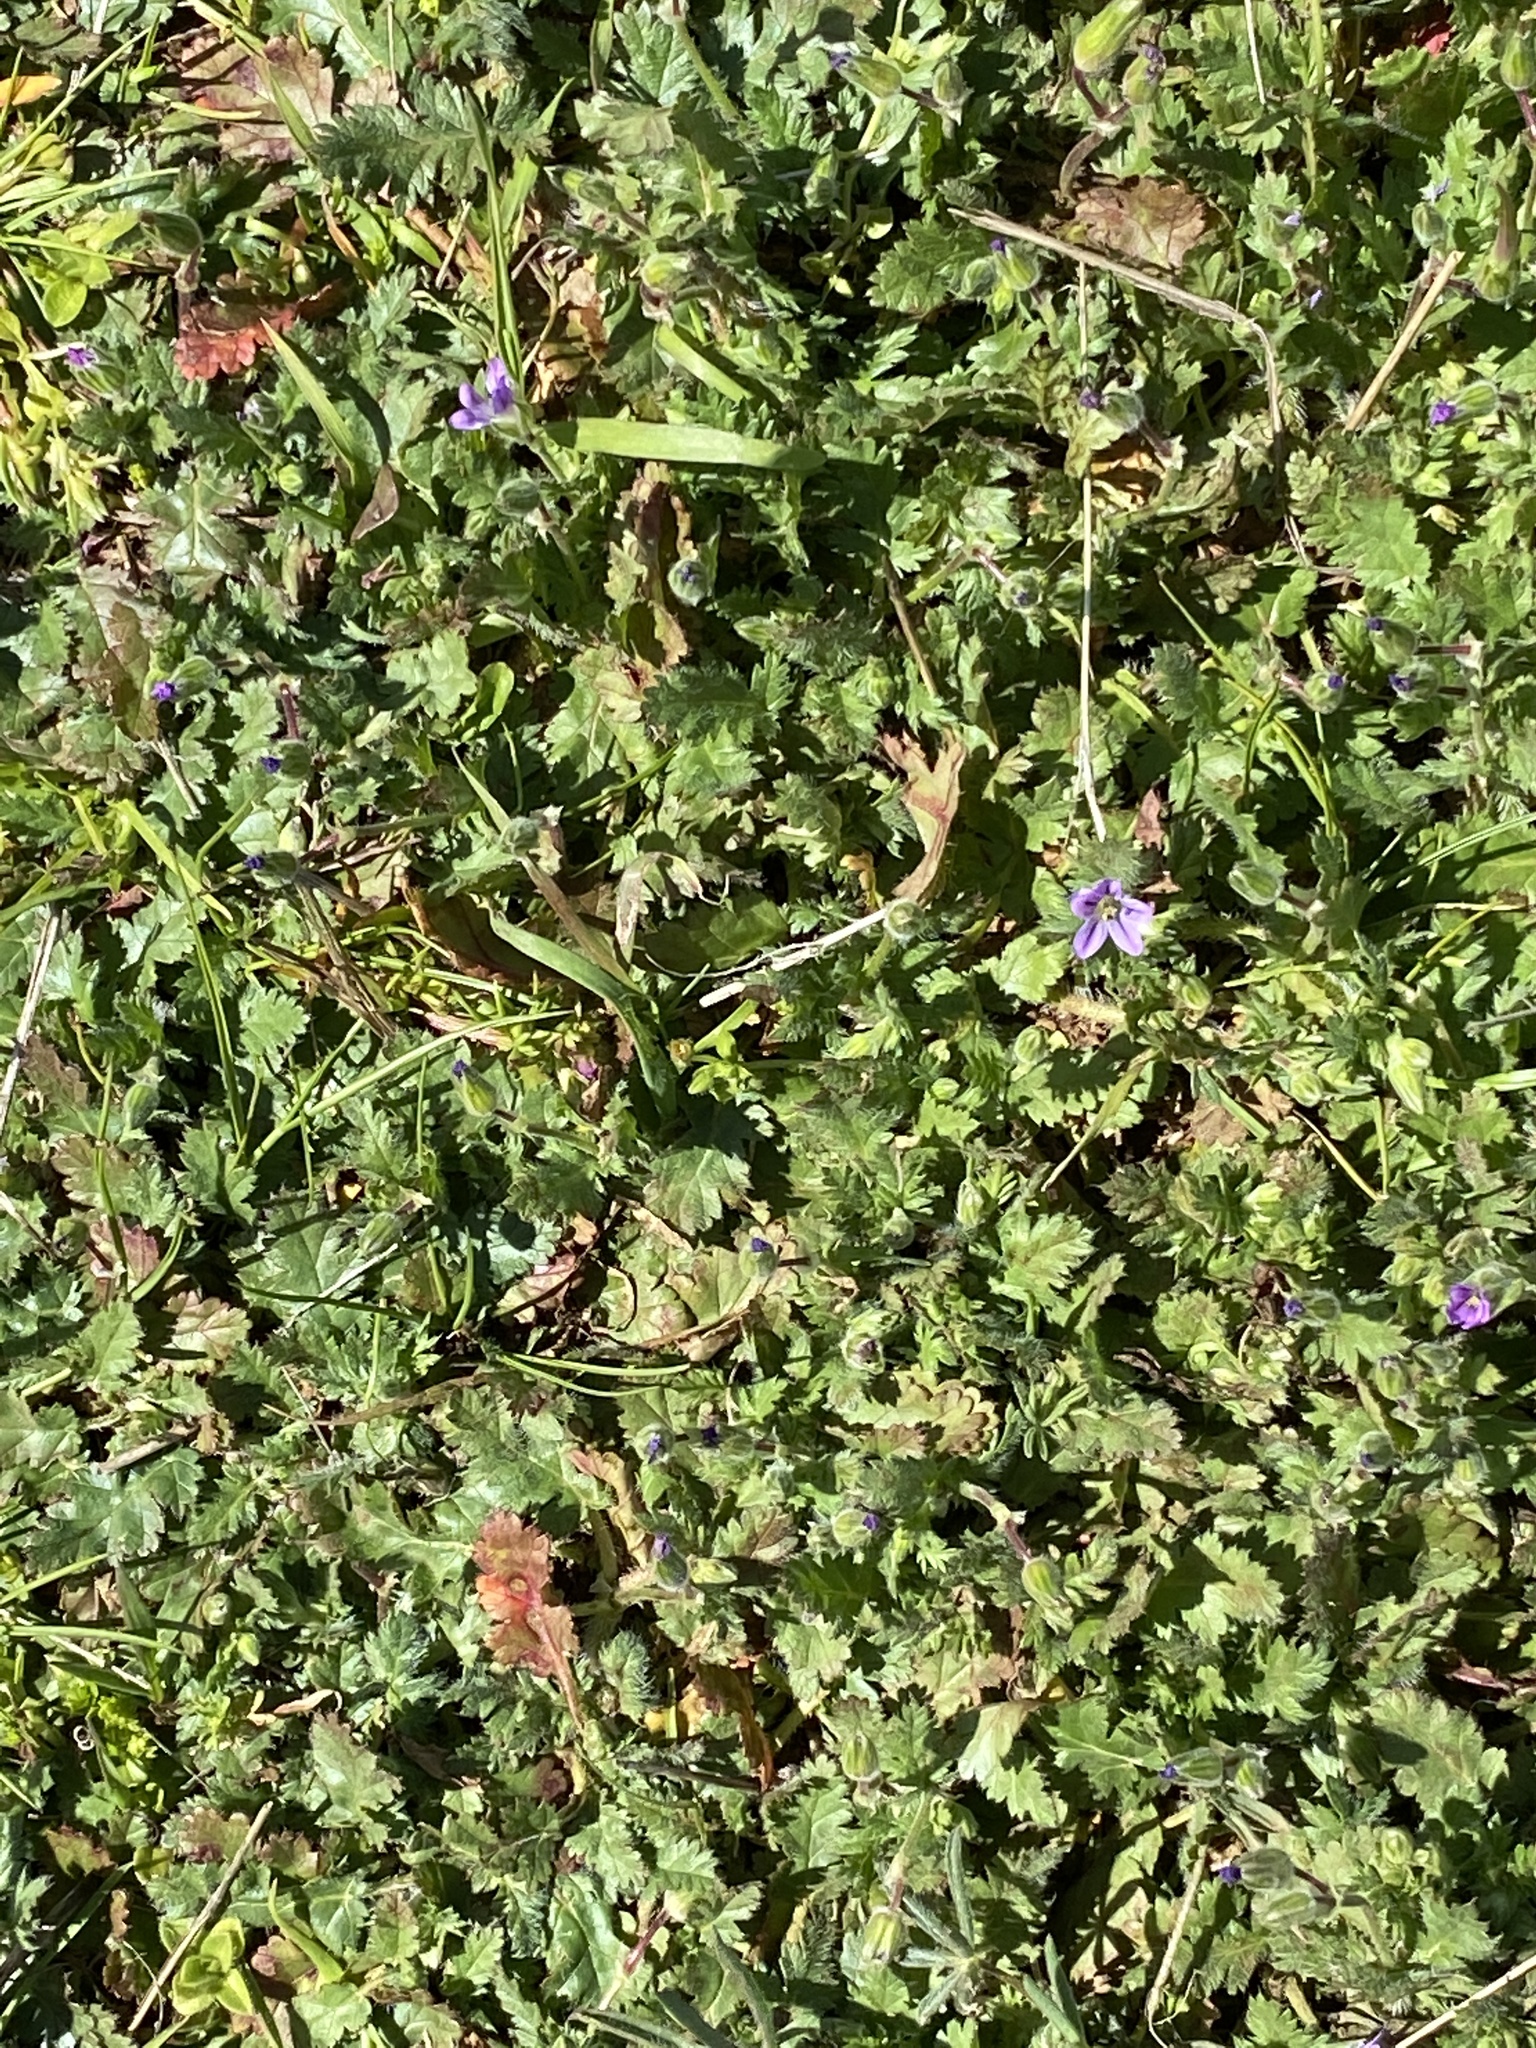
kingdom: Plantae
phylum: Tracheophyta
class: Magnoliopsida
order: Geraniales
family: Geraniaceae
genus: Erodium
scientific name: Erodium brachycarpum
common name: Hairy-pitted stork's-bill
